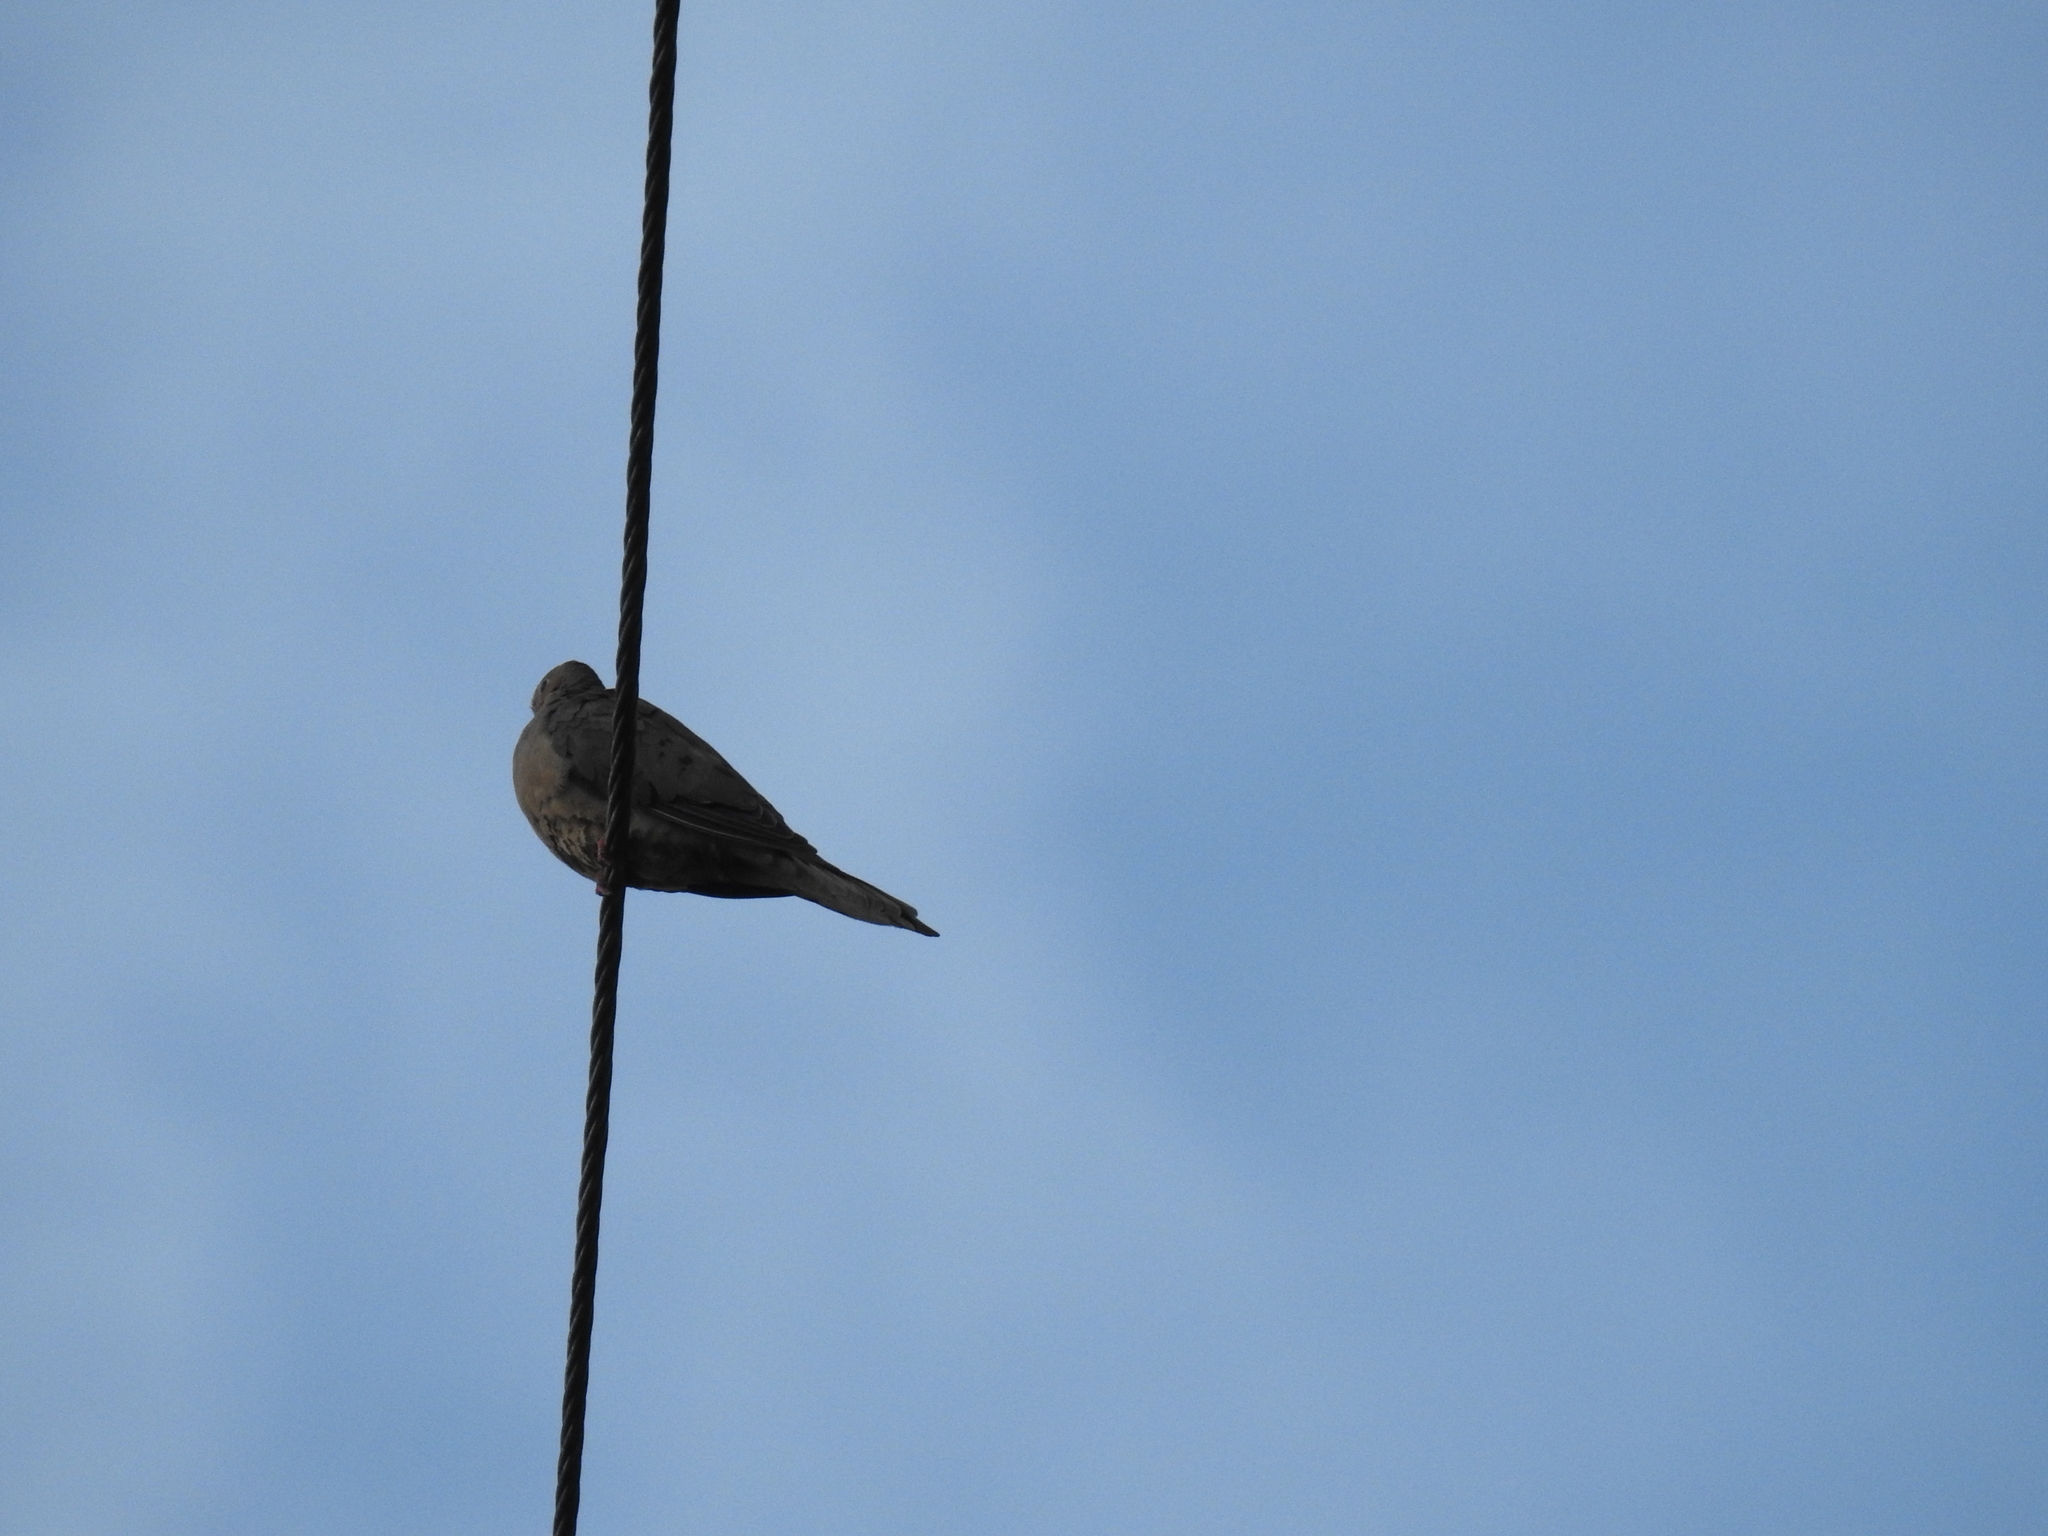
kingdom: Animalia
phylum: Chordata
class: Aves
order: Columbiformes
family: Columbidae
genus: Zenaida
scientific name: Zenaida macroura
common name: Mourning dove
